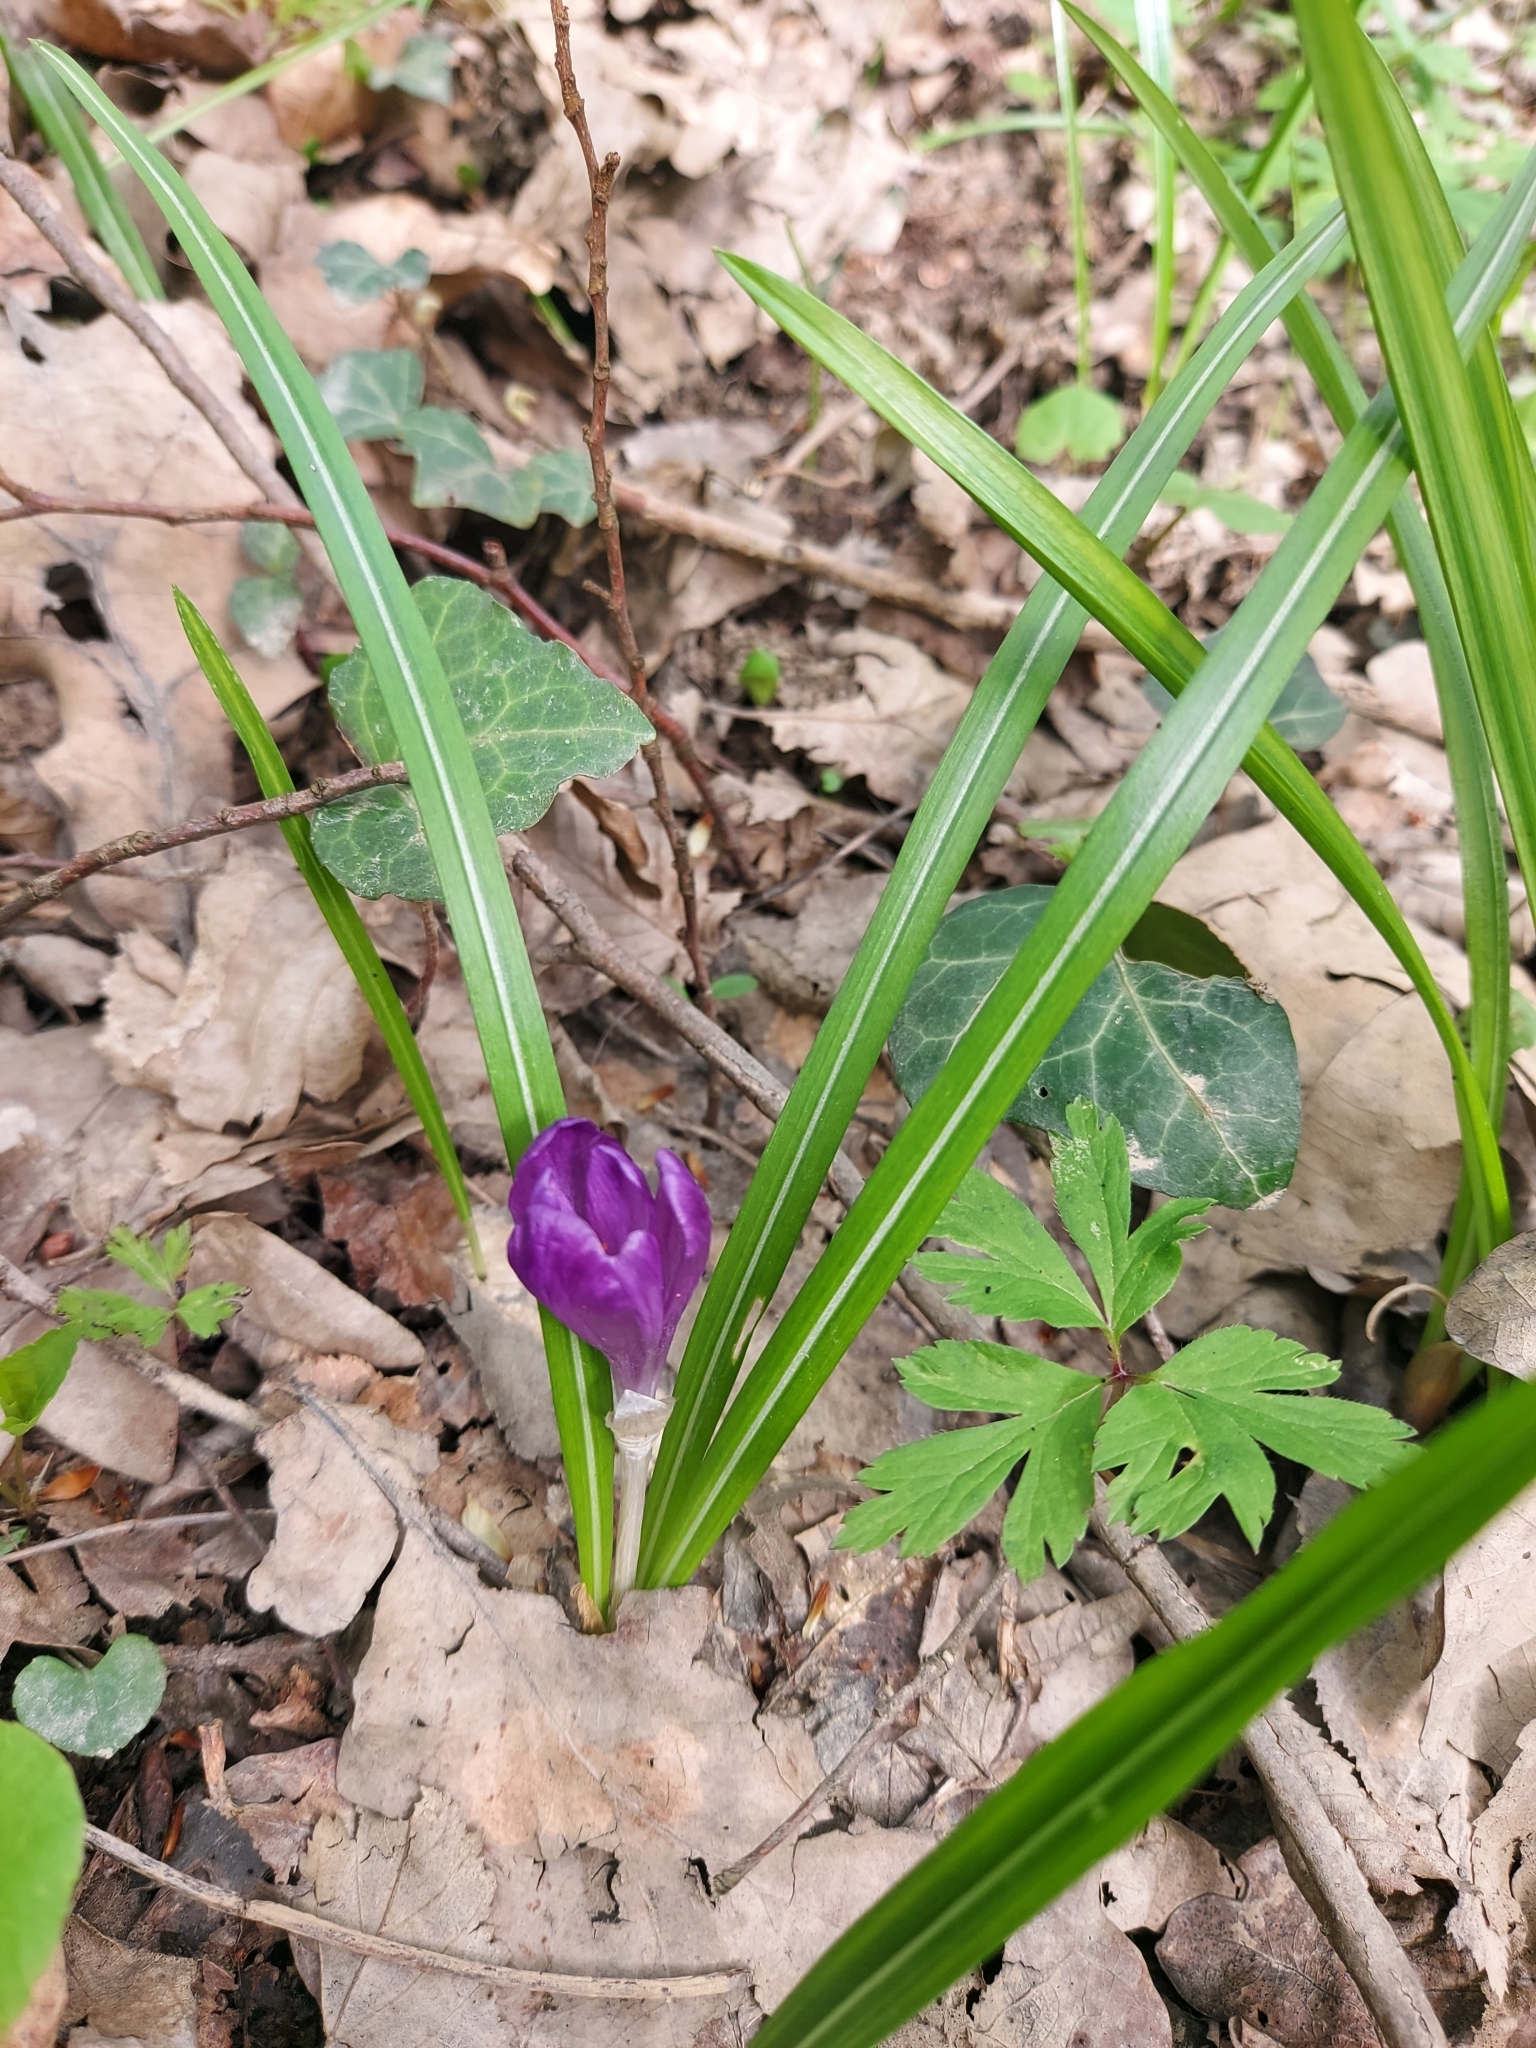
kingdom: Plantae
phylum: Tracheophyta
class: Liliopsida
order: Asparagales
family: Iridaceae
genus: Crocus
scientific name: Crocus heuffelianus
